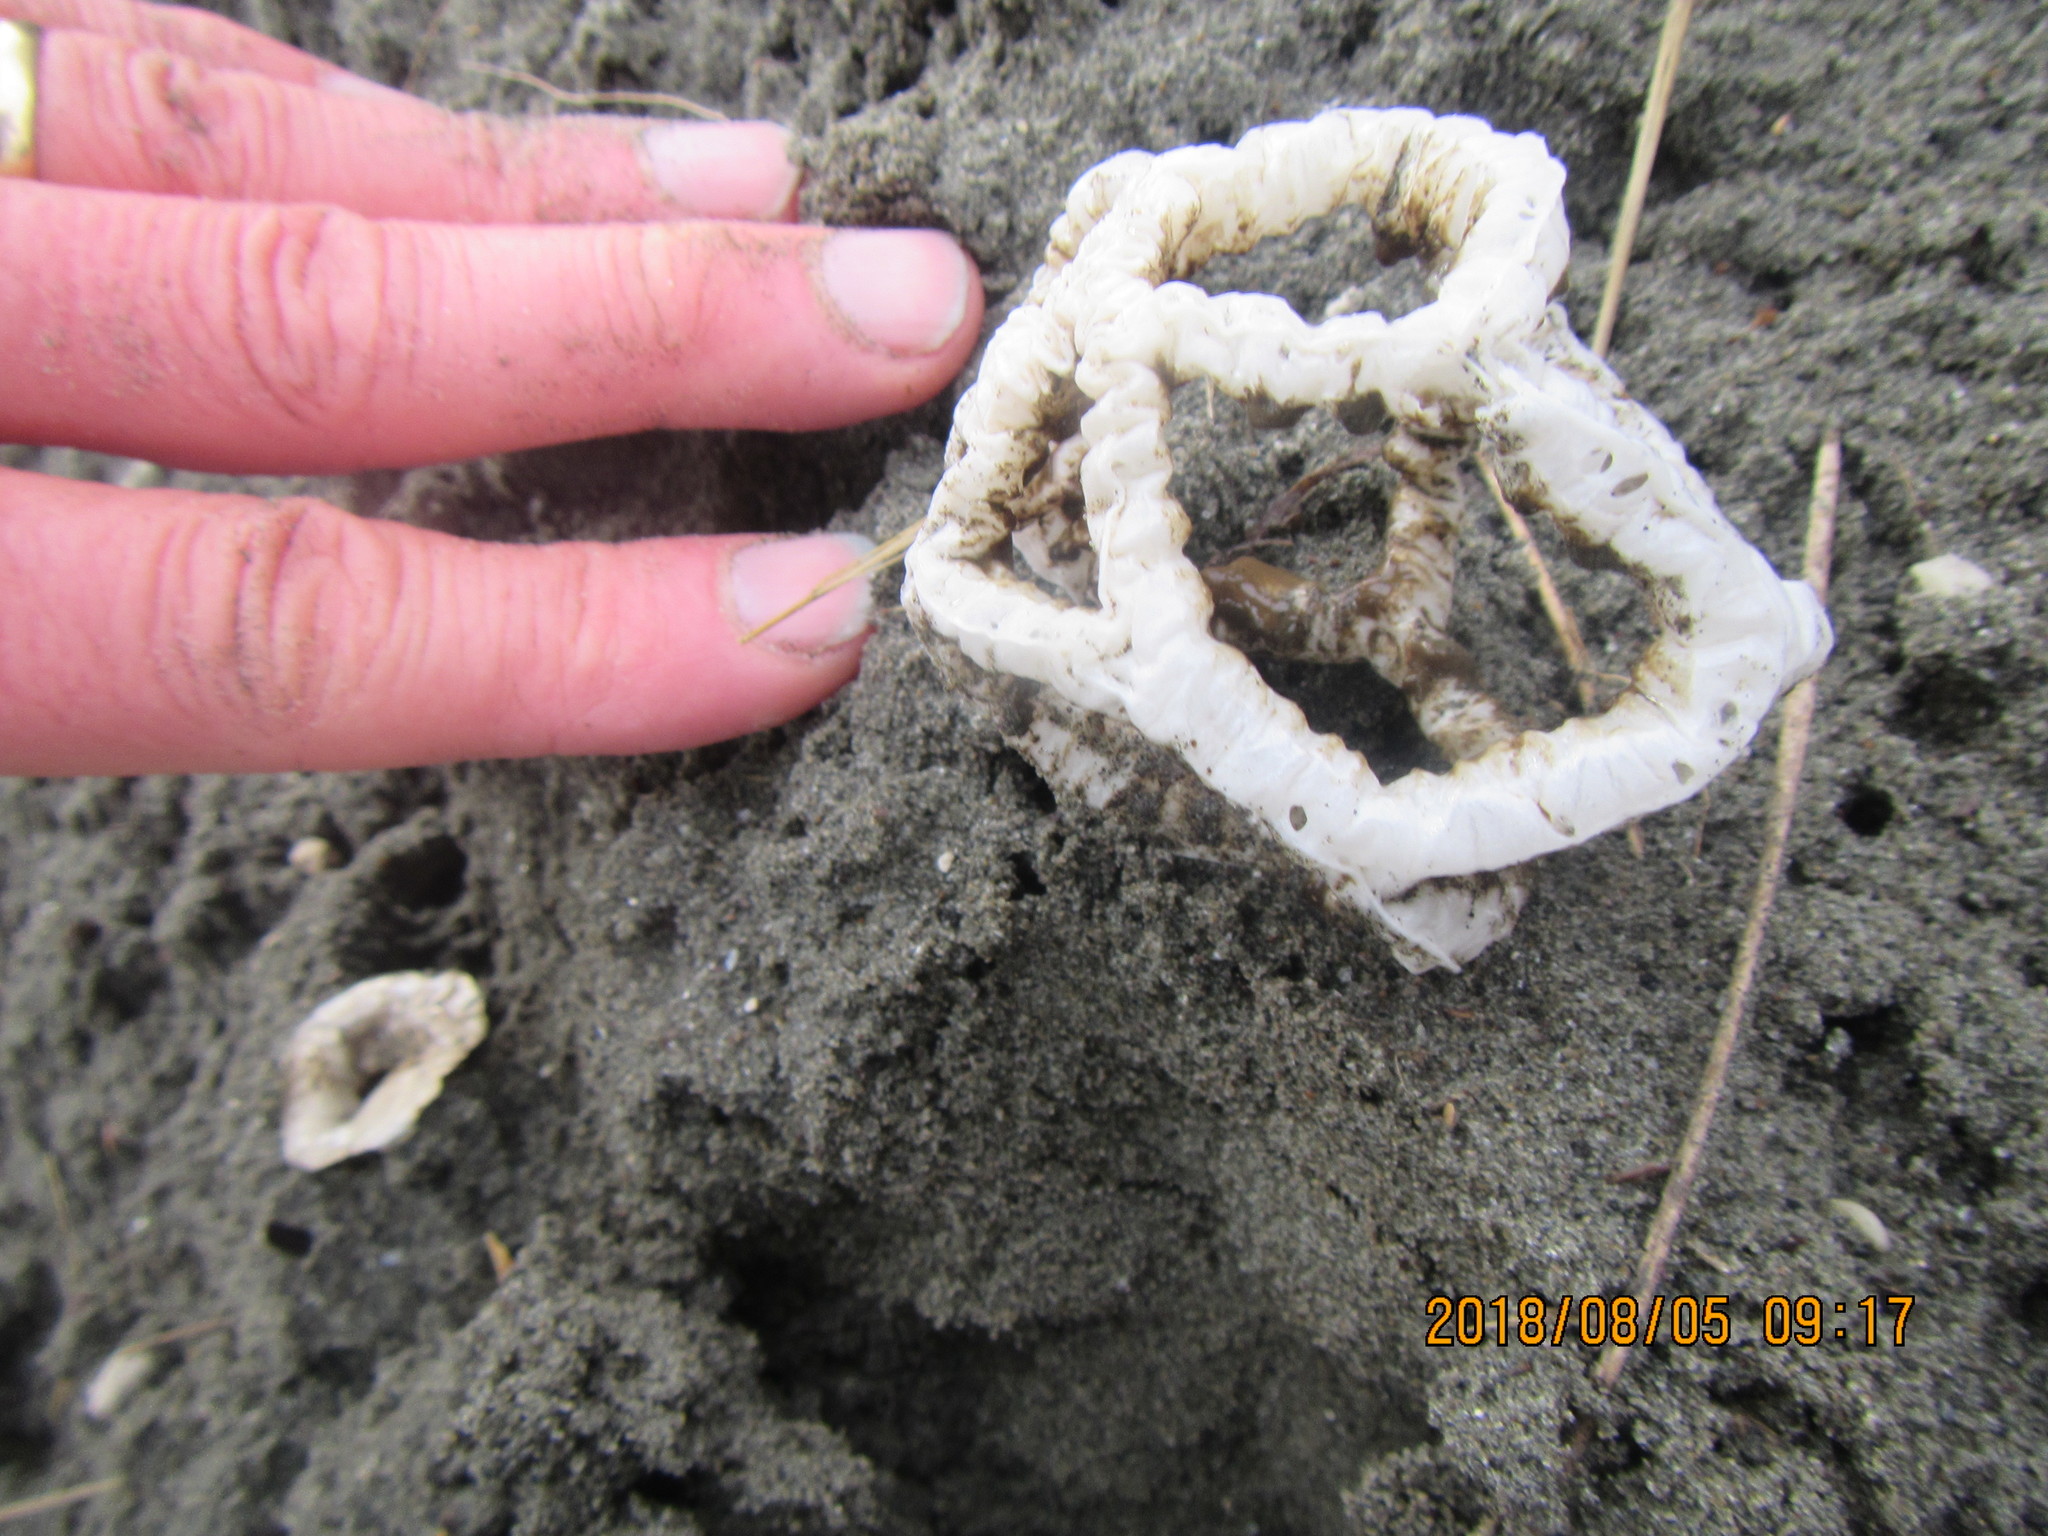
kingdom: Fungi
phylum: Basidiomycota
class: Agaricomycetes
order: Phallales
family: Phallaceae
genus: Ileodictyon
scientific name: Ileodictyon cibarium
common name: Basket fungus
